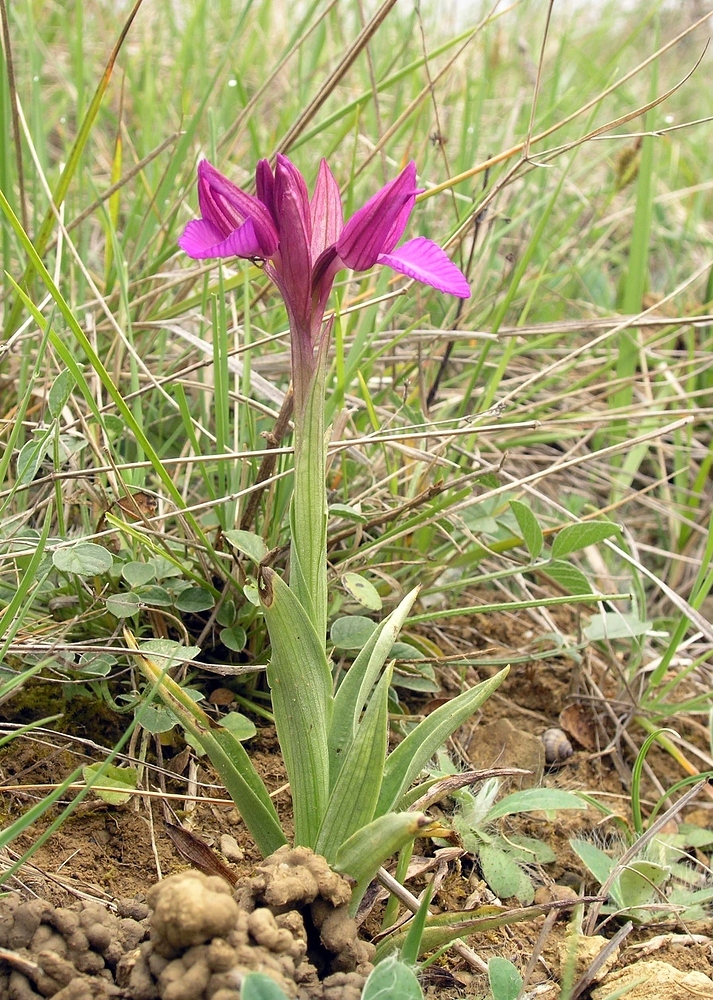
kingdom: Plantae
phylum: Tracheophyta
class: Liliopsida
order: Asparagales
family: Orchidaceae
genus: Anacamptis
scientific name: Anacamptis papilionacea
